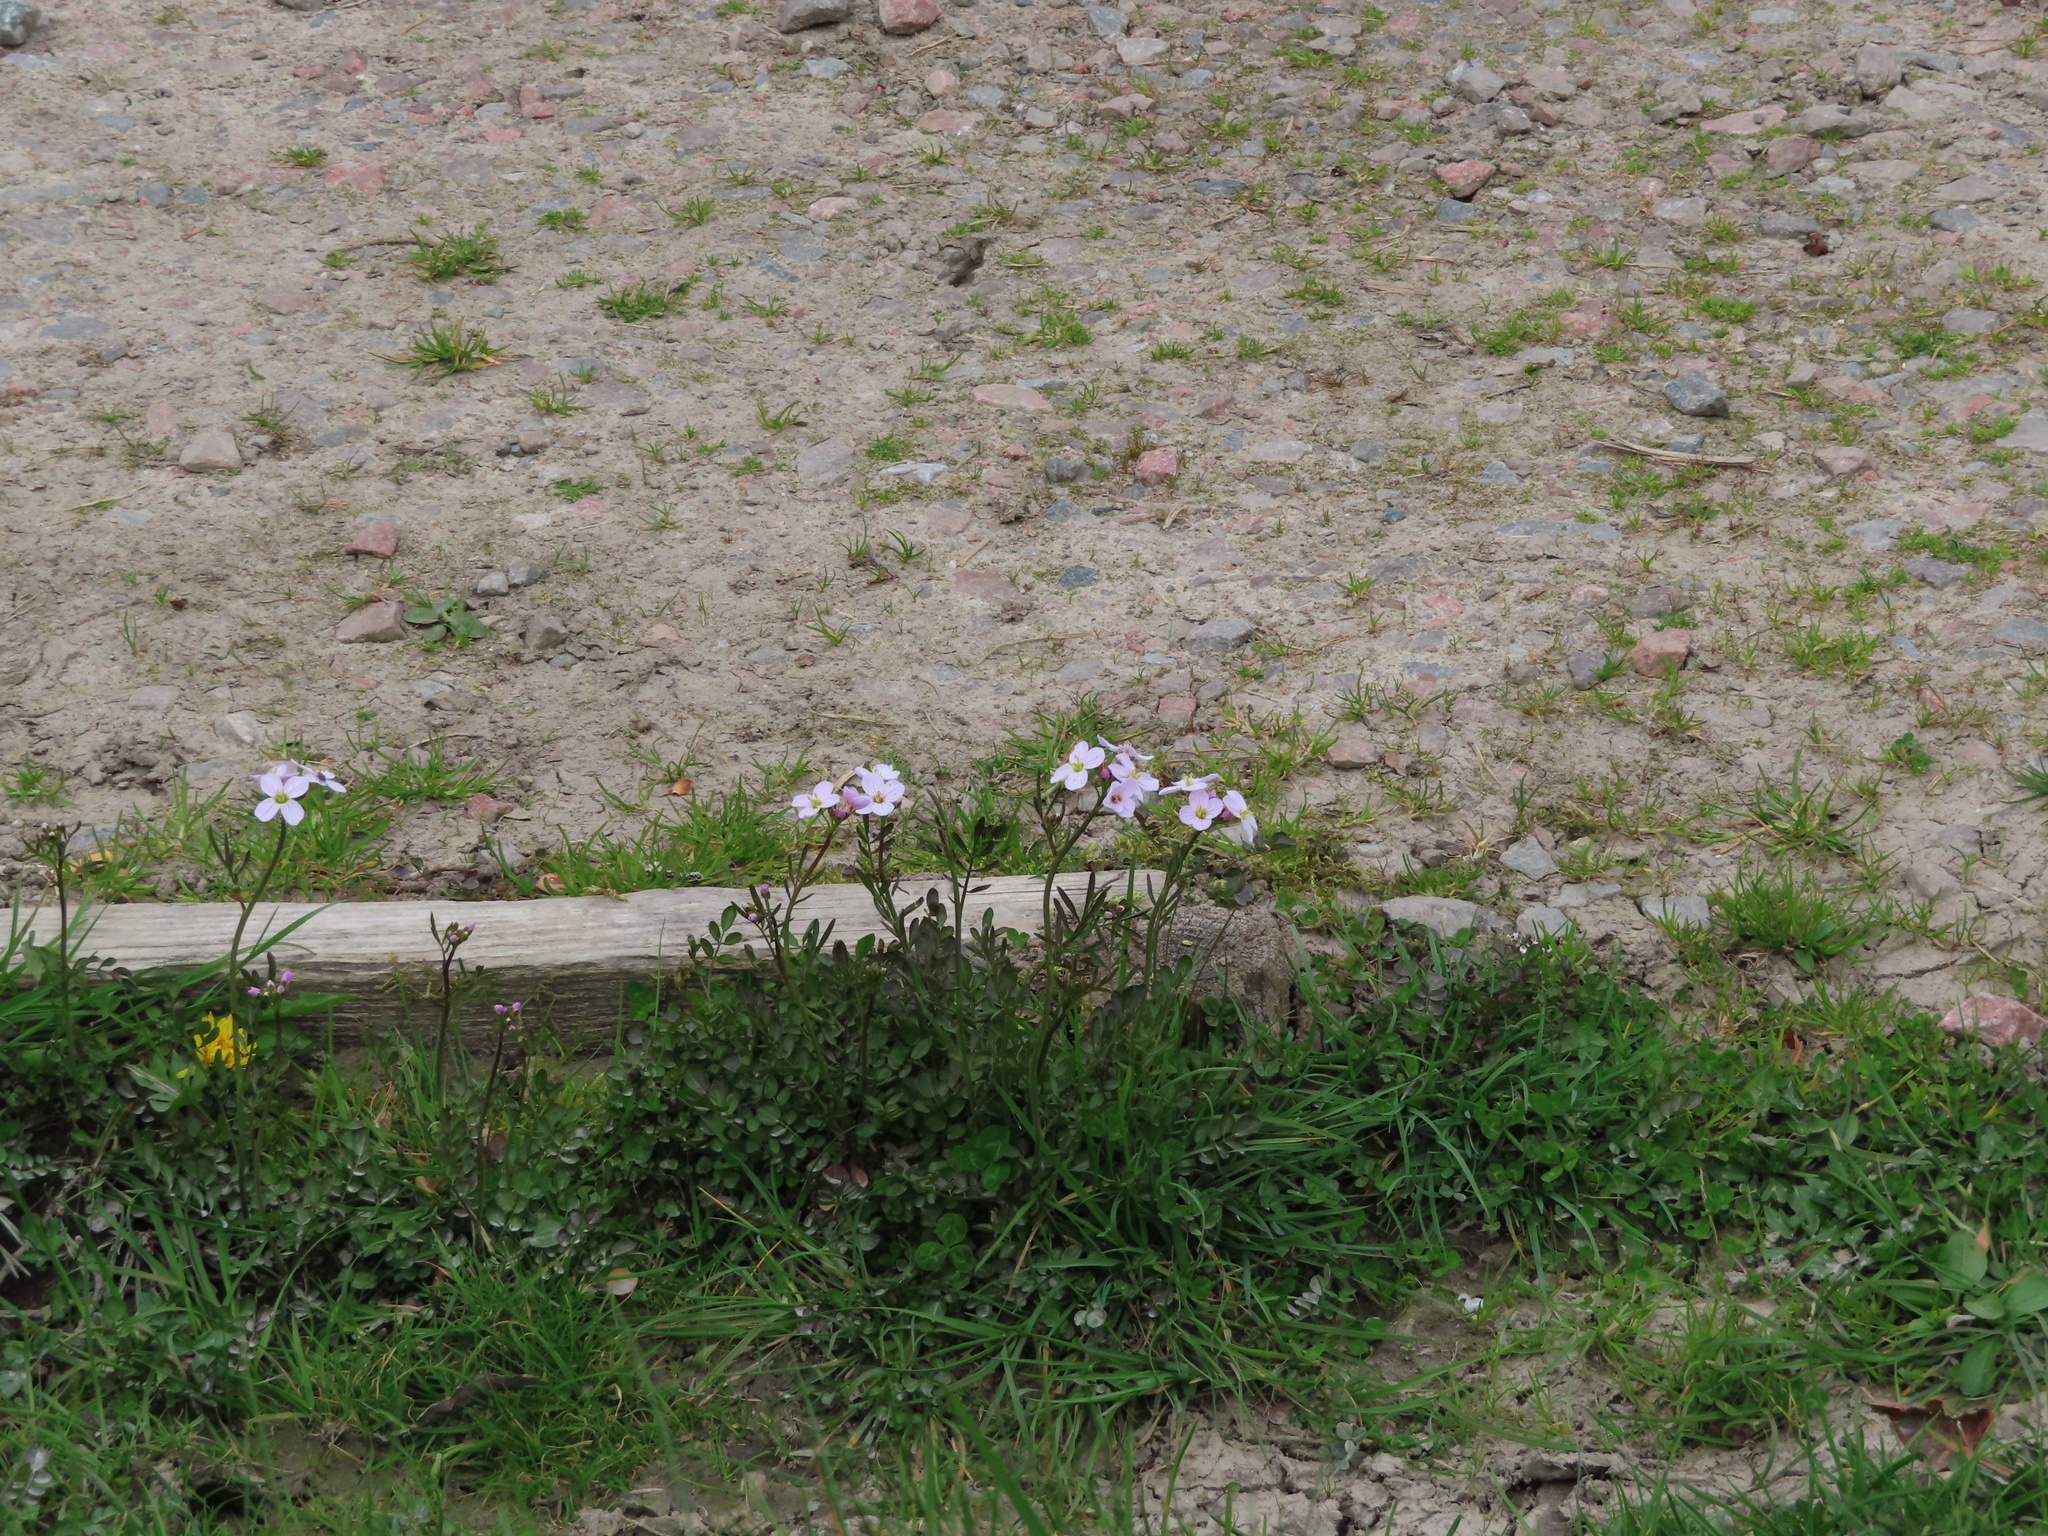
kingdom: Plantae
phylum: Tracheophyta
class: Magnoliopsida
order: Brassicales
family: Brassicaceae
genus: Cardamine
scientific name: Cardamine pratensis
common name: Cuckoo flower
